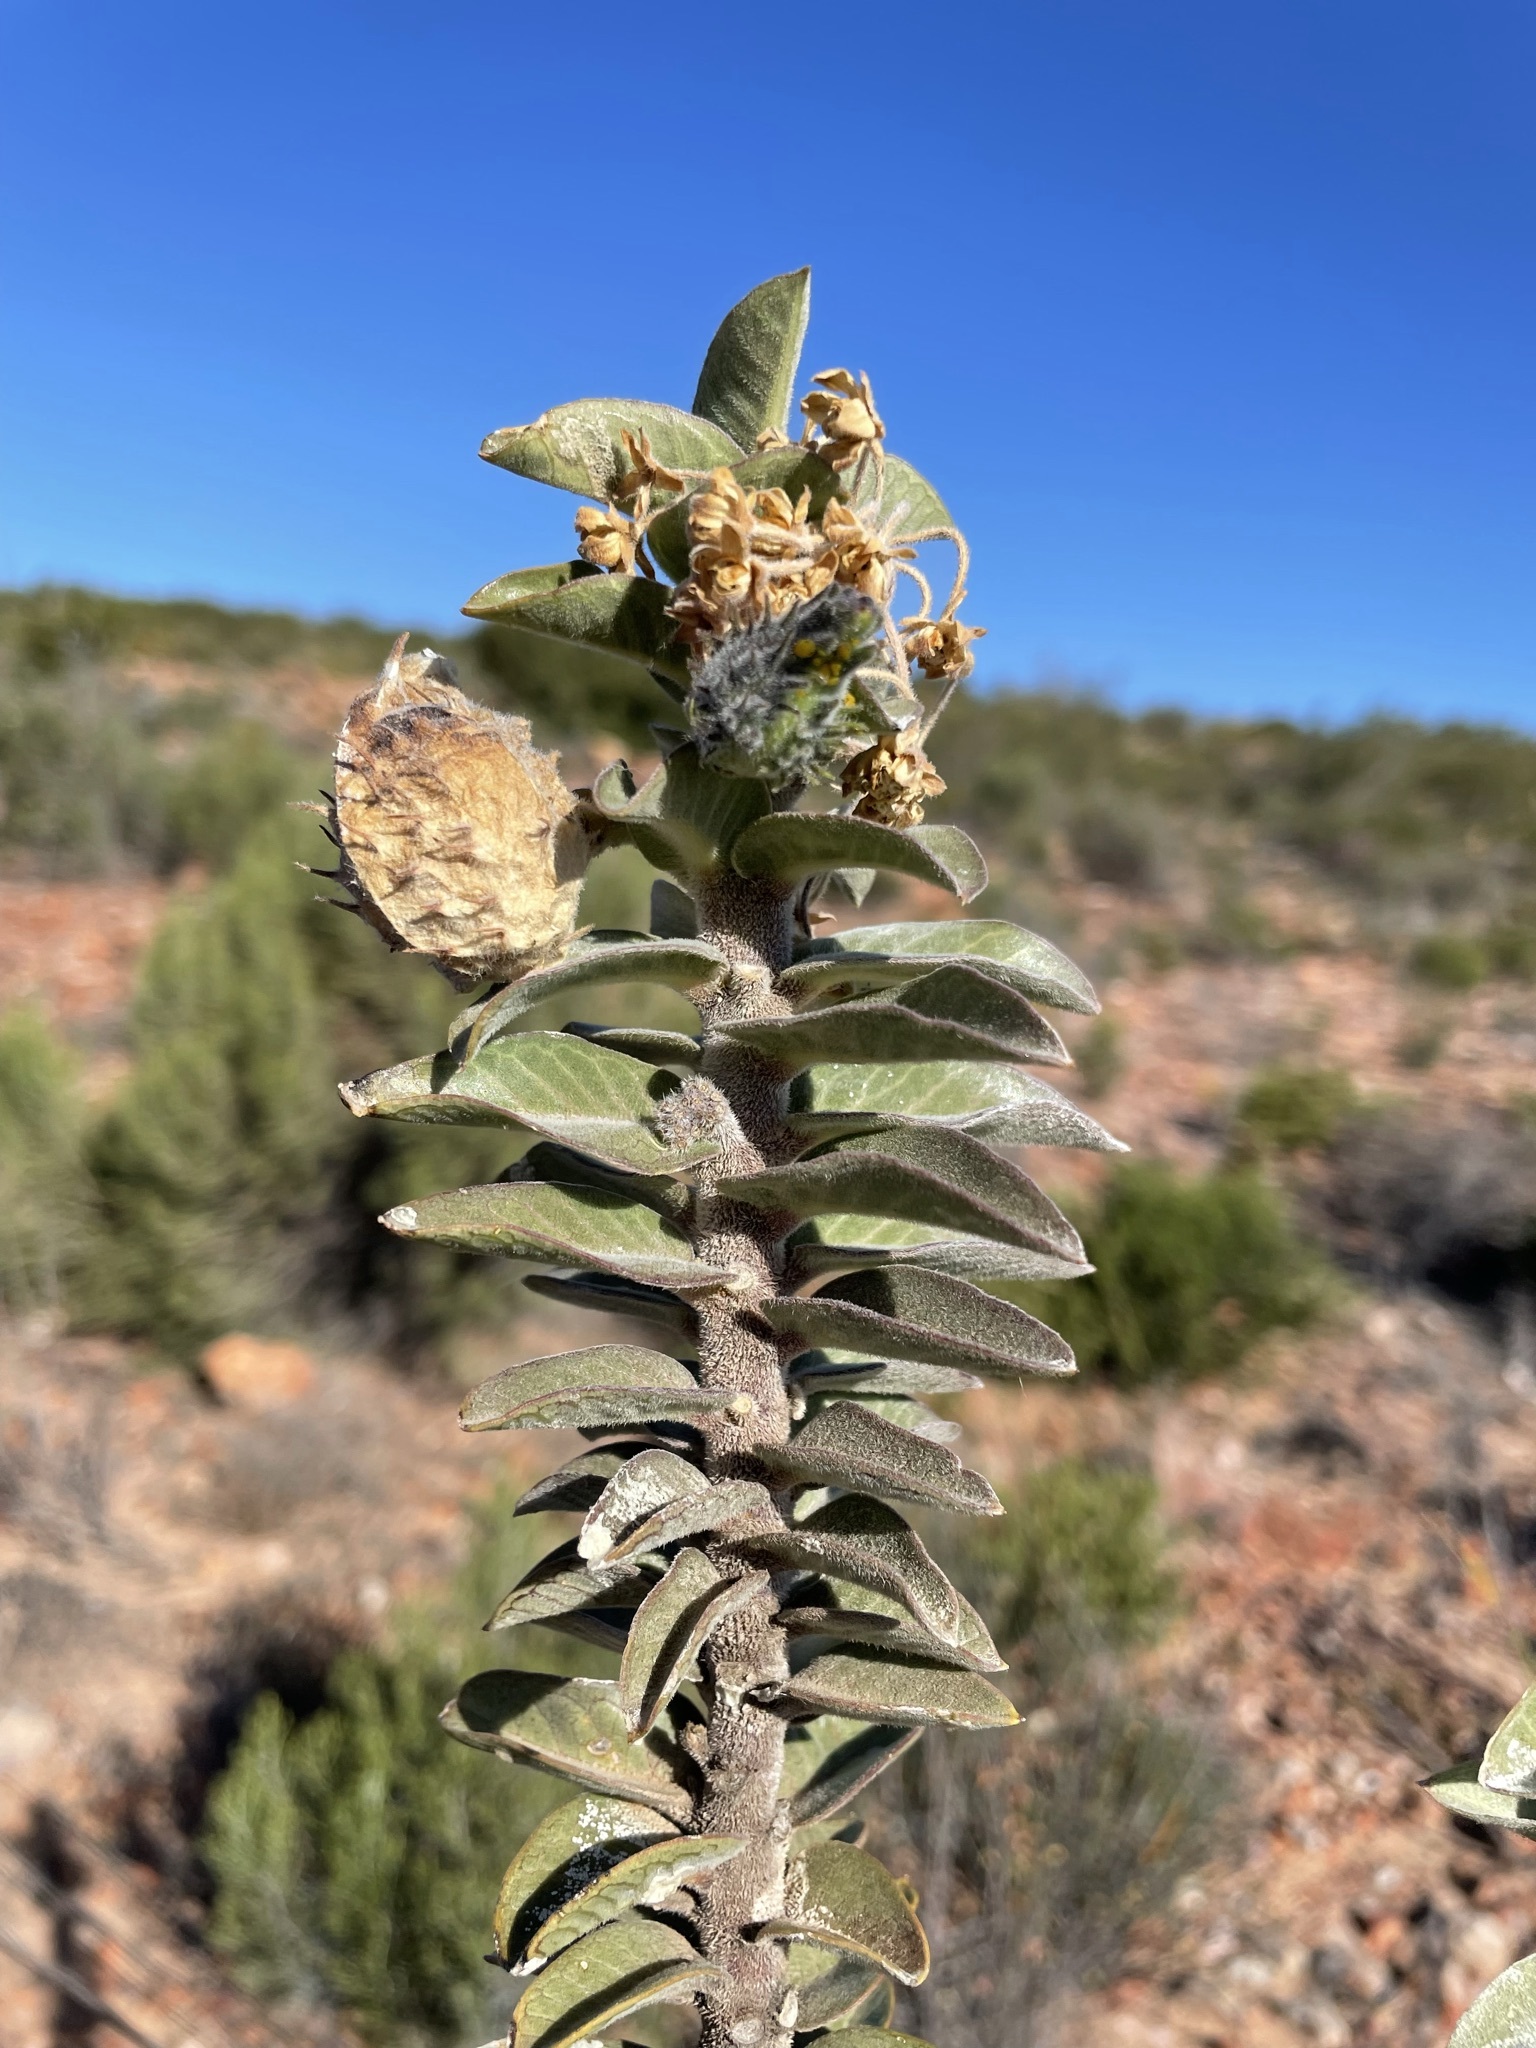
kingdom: Plantae
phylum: Tracheophyta
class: Magnoliopsida
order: Gentianales
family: Apocynaceae
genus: Gomphocarpus
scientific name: Gomphocarpus cancellatus
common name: Wild cotton
